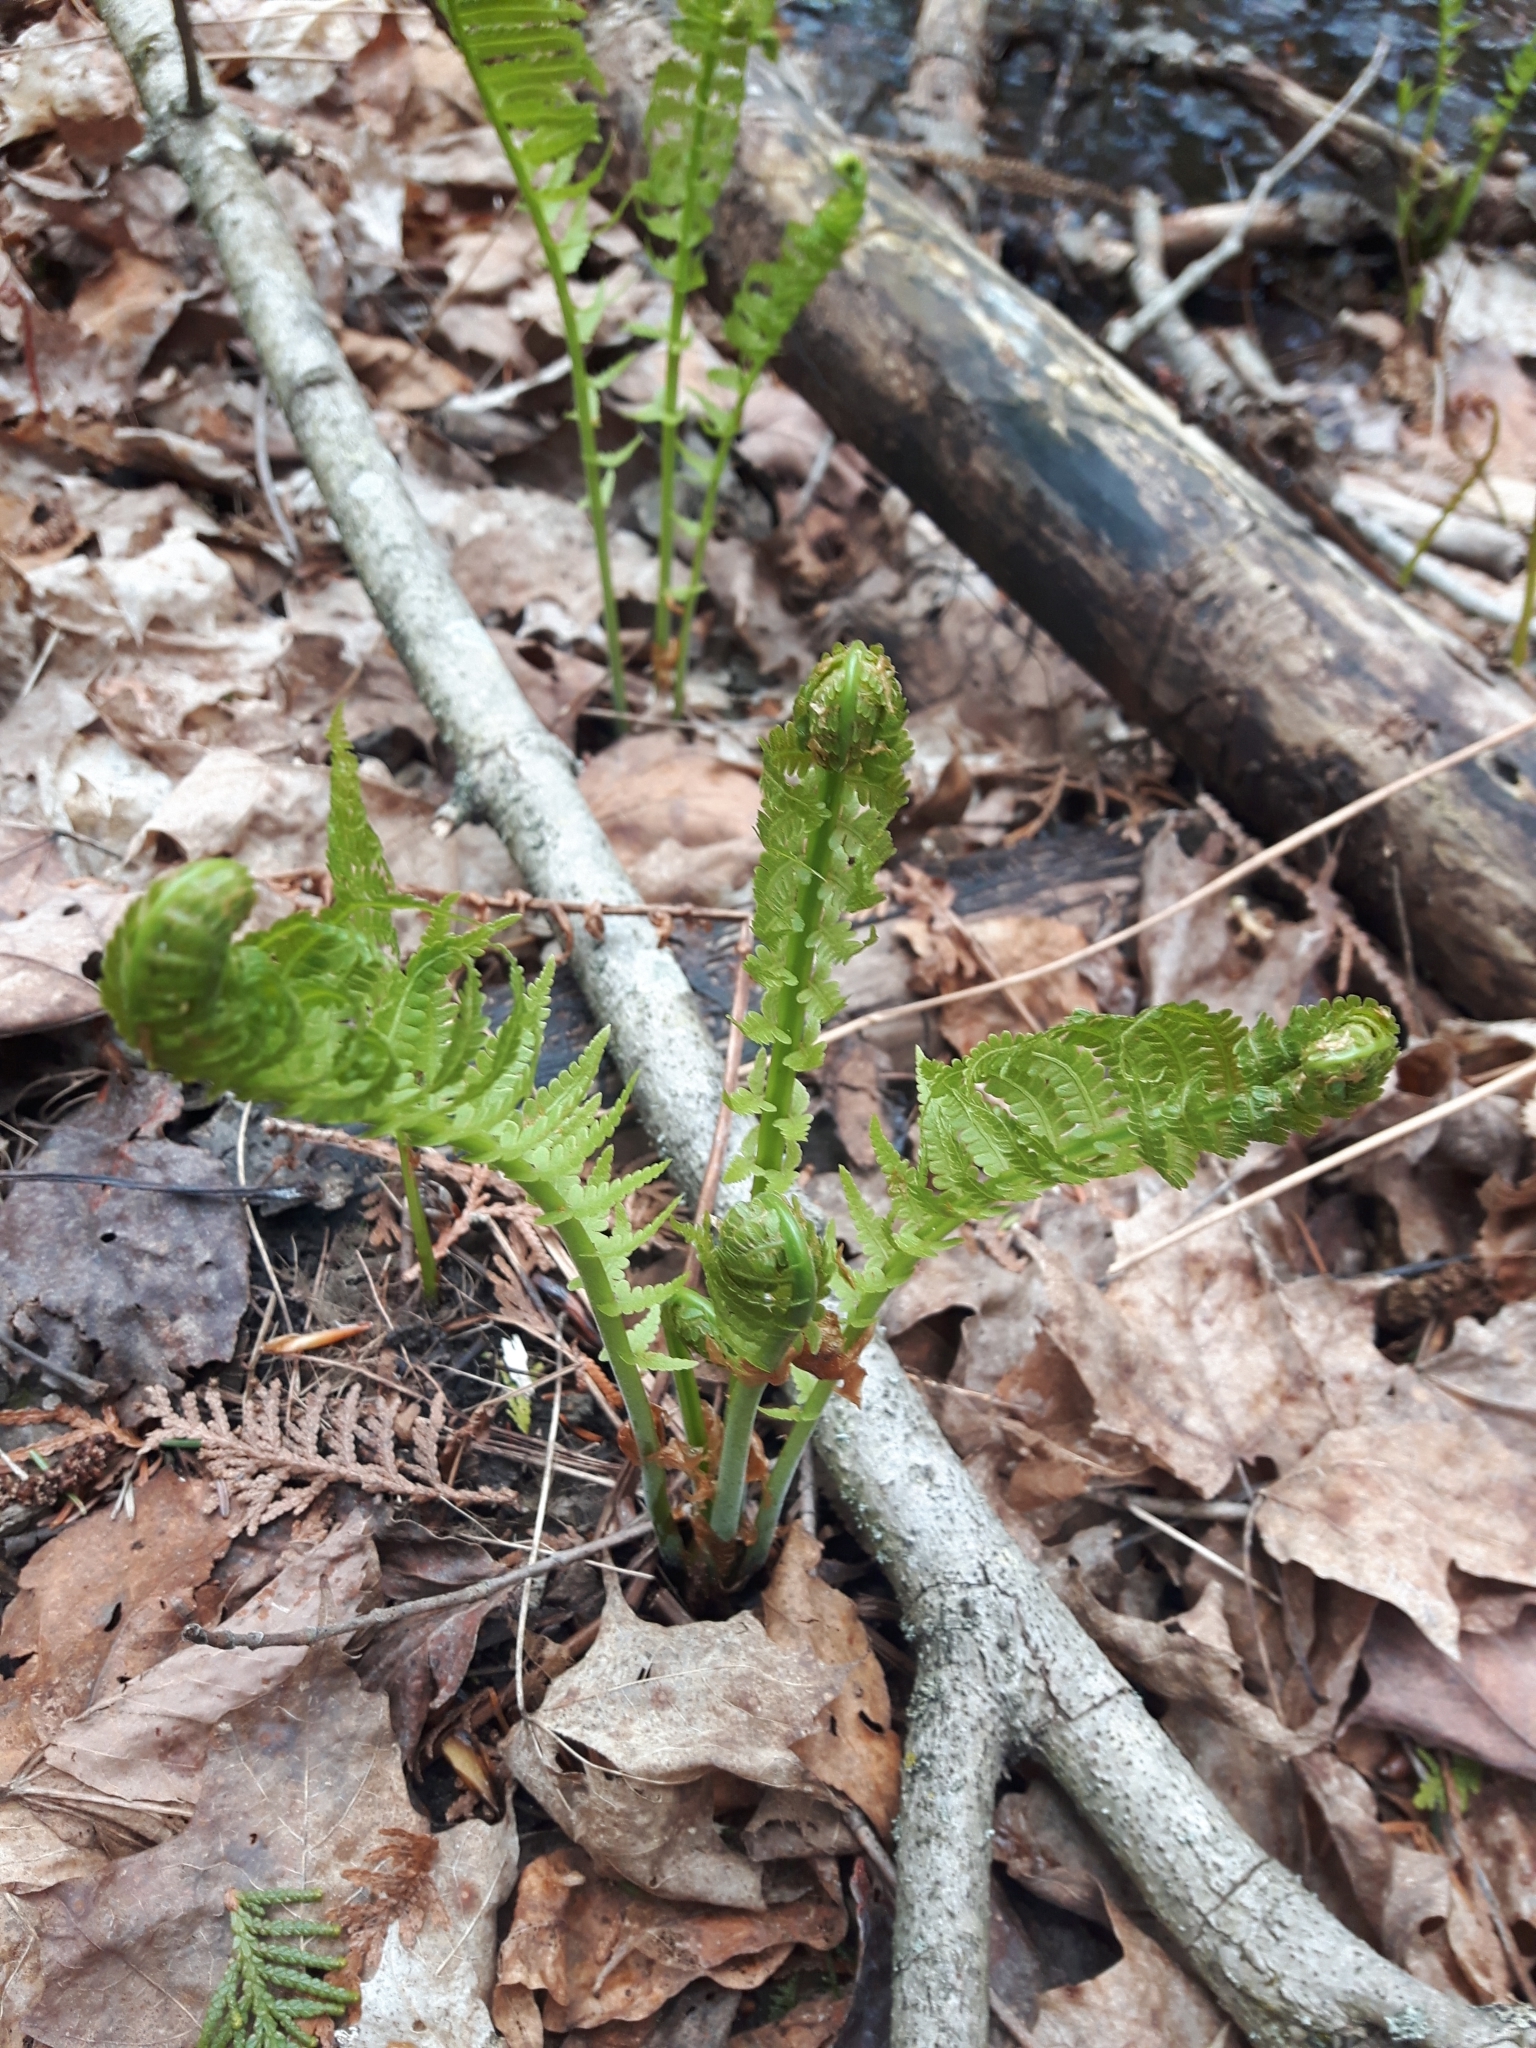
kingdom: Plantae
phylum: Tracheophyta
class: Polypodiopsida
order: Polypodiales
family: Onocleaceae
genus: Matteuccia
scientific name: Matteuccia struthiopteris
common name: Ostrich fern
